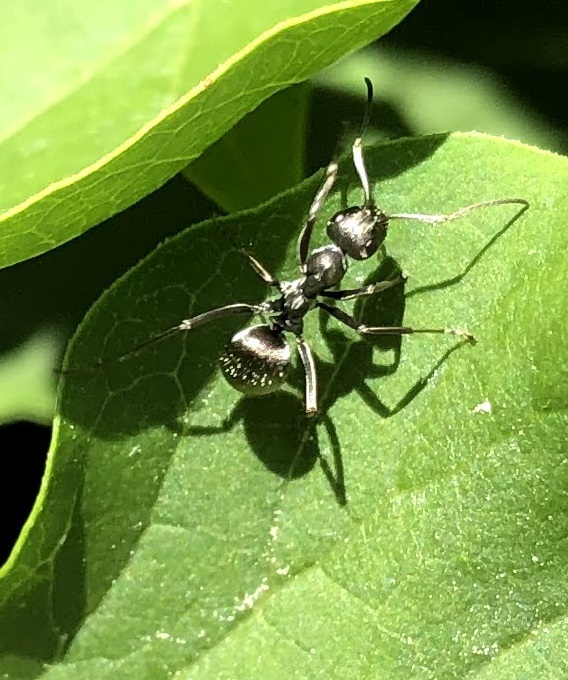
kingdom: Animalia
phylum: Arthropoda
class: Insecta
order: Hymenoptera
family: Formicidae
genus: Formica
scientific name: Formica
